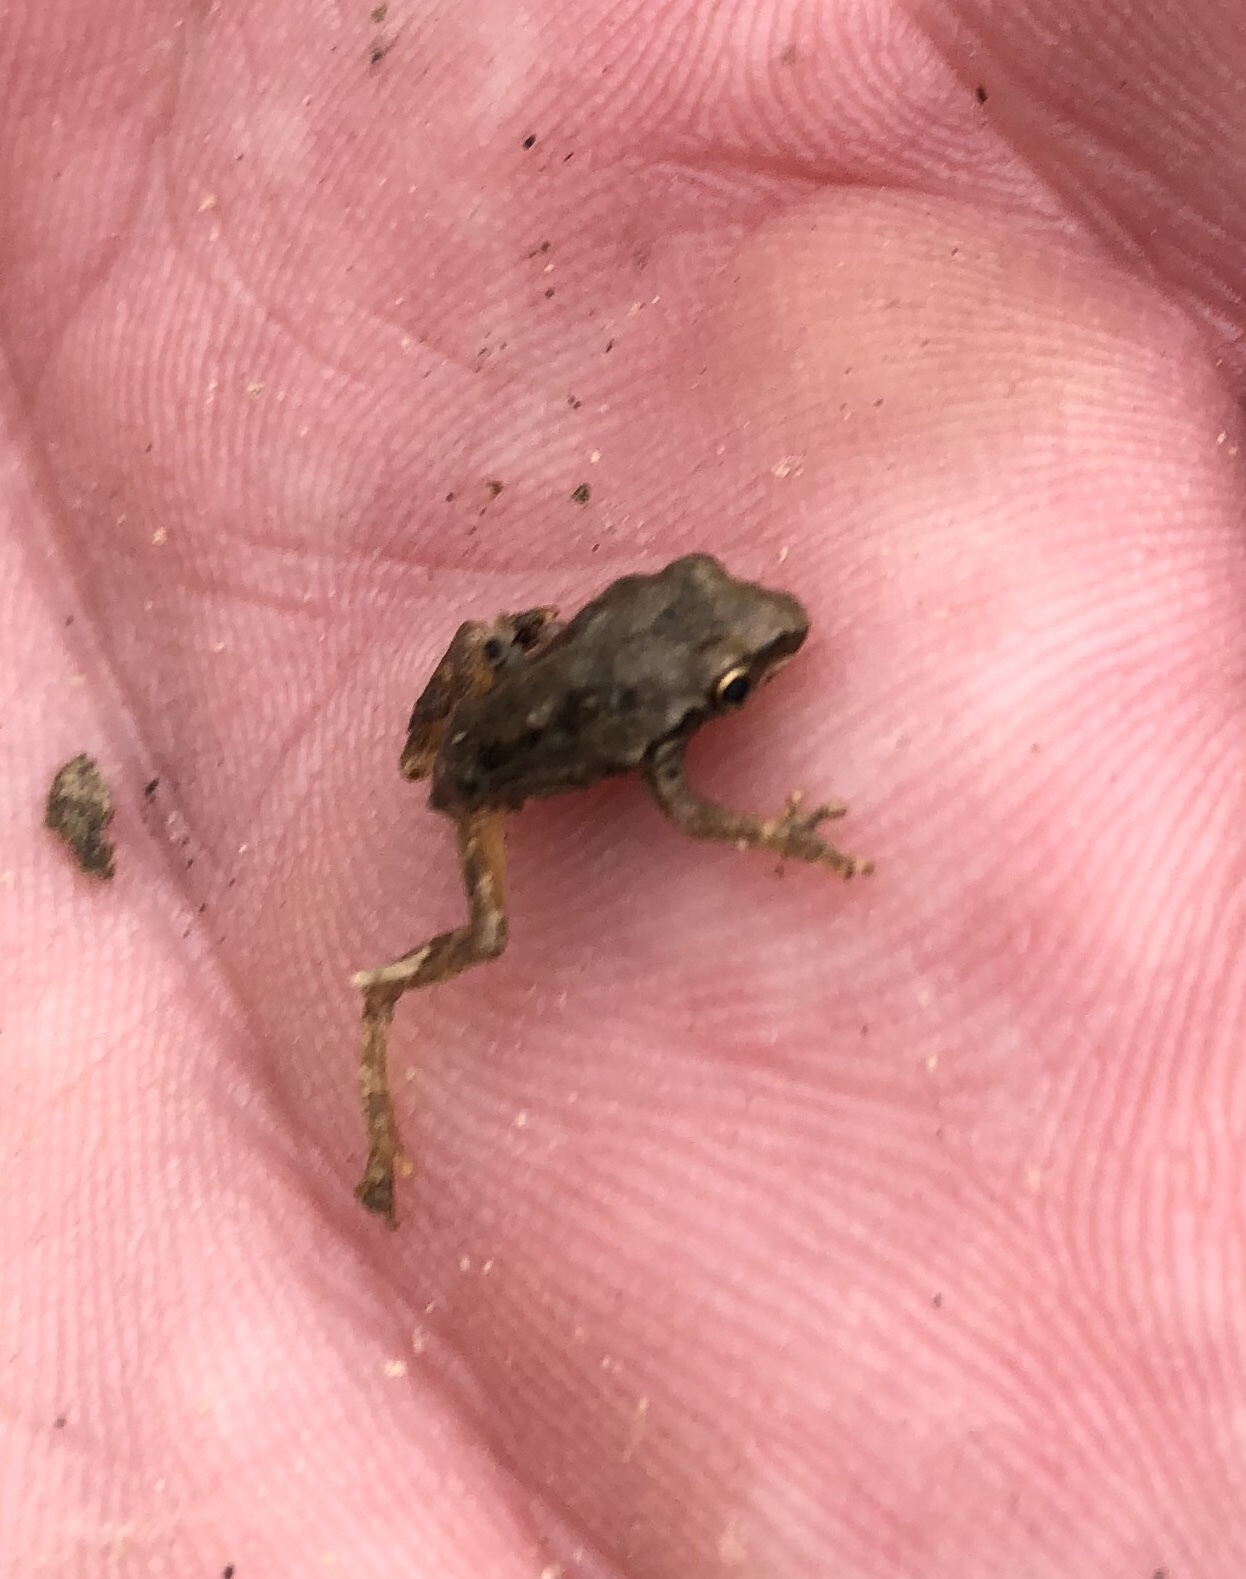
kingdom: Animalia
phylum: Chordata
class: Amphibia
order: Anura
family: Hylidae
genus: Pseudacris
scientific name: Pseudacris regilla
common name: Pacific chorus frog
